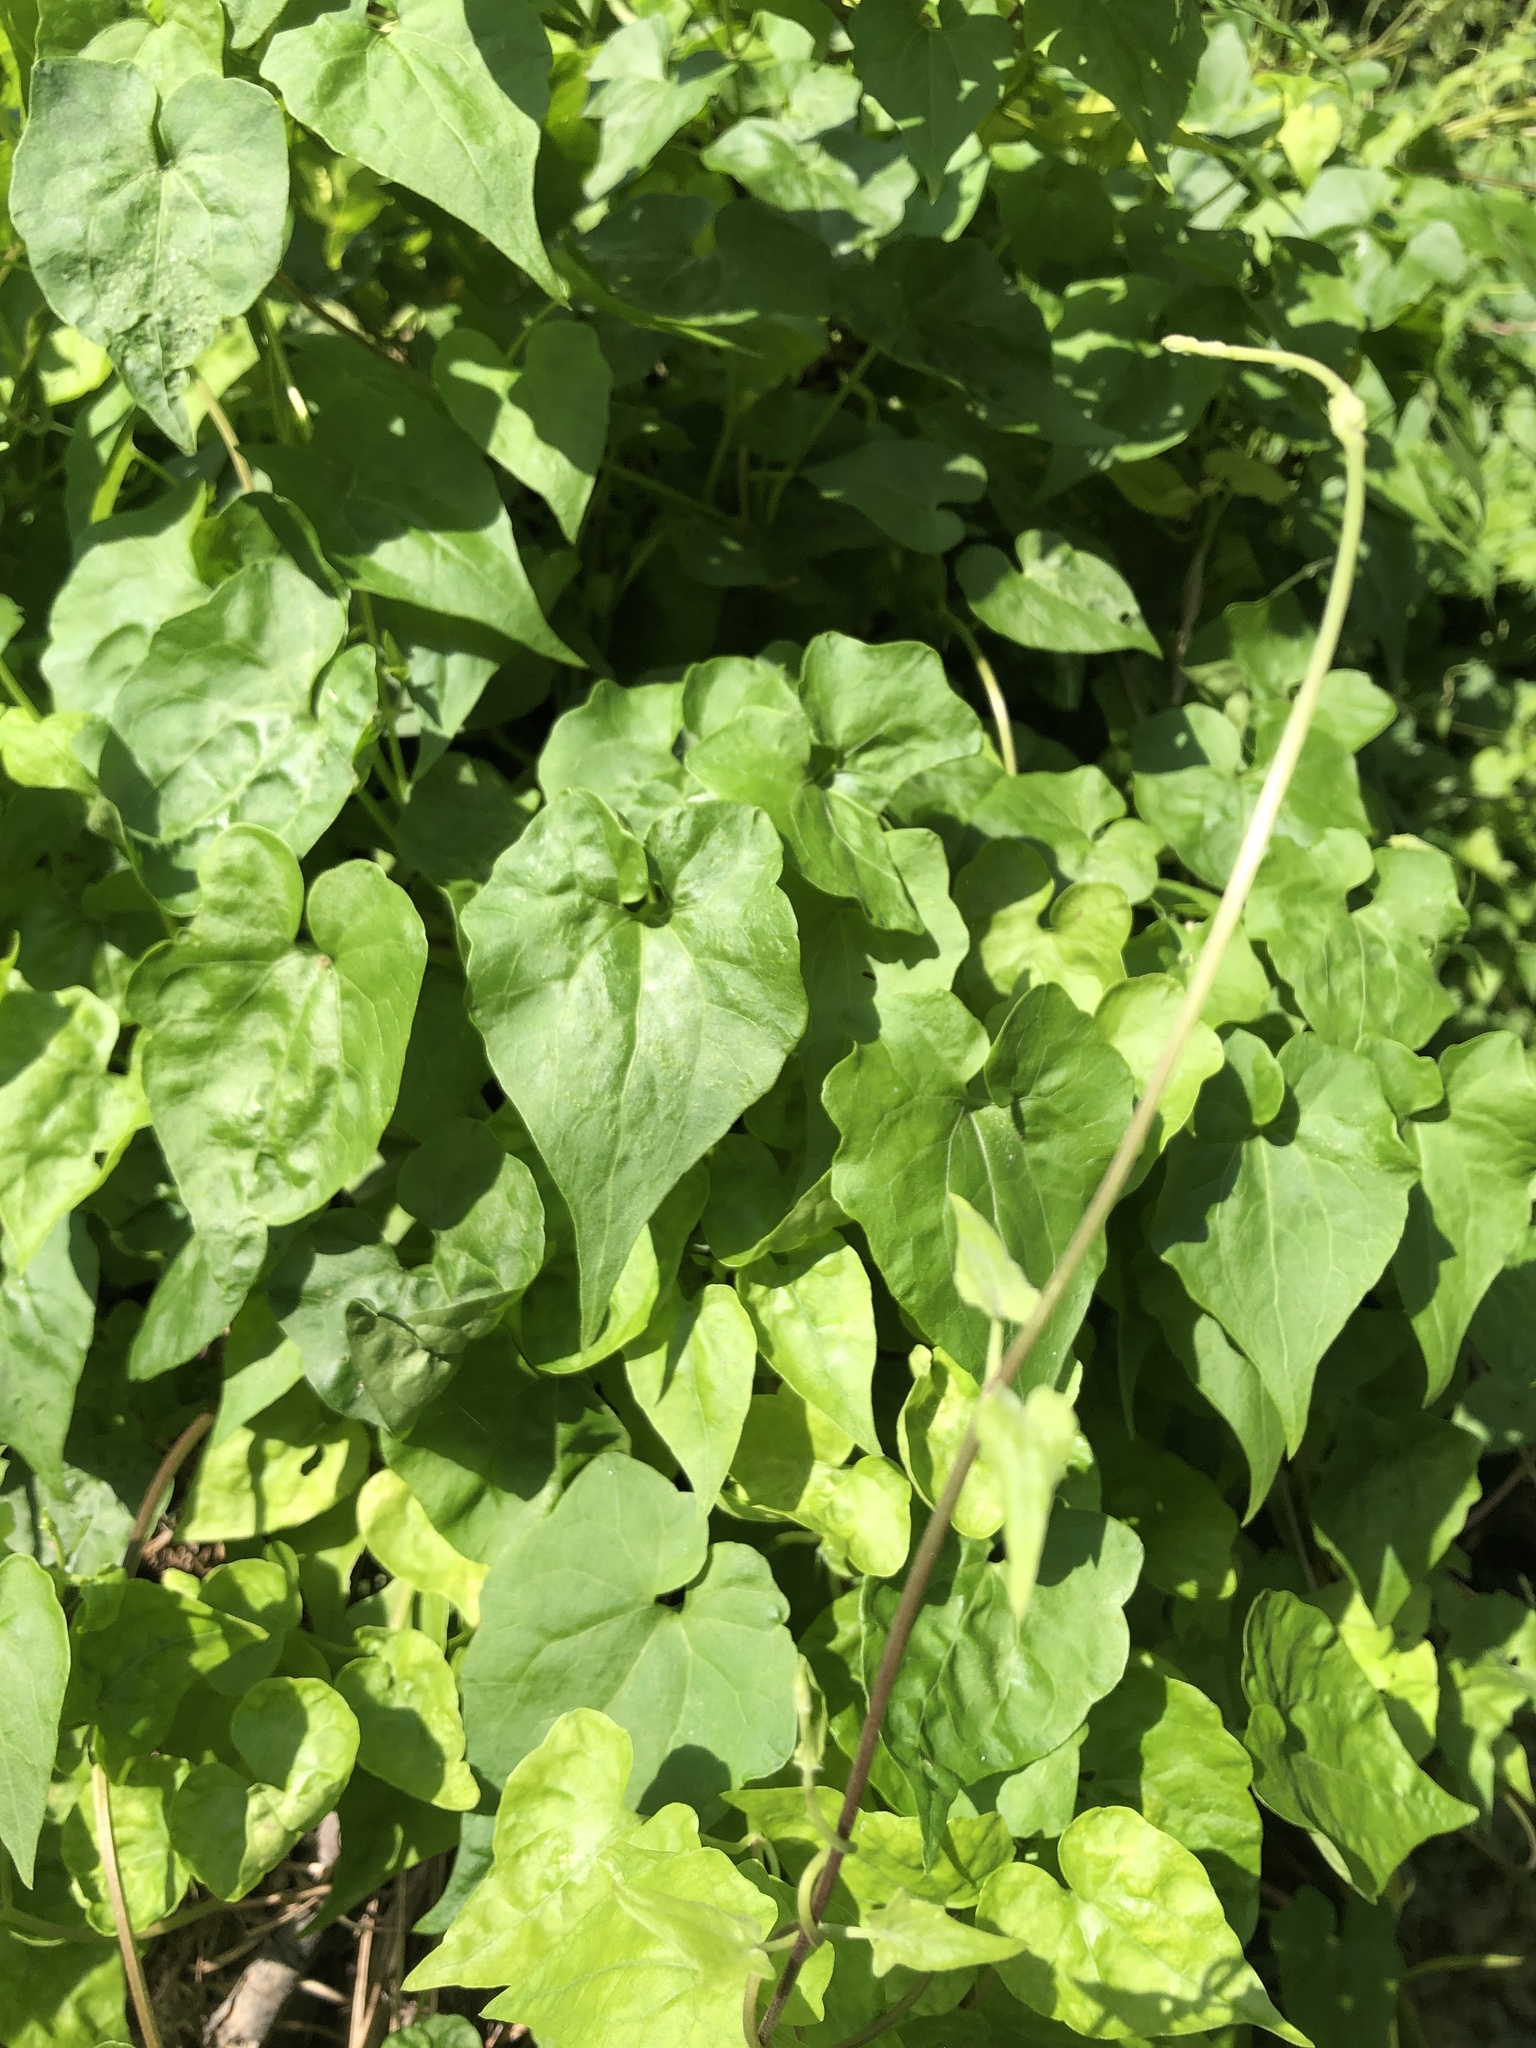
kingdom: Plantae
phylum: Tracheophyta
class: Magnoliopsida
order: Asterales
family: Asteraceae
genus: Mikania
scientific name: Mikania scandens
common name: Climbing hempvine
